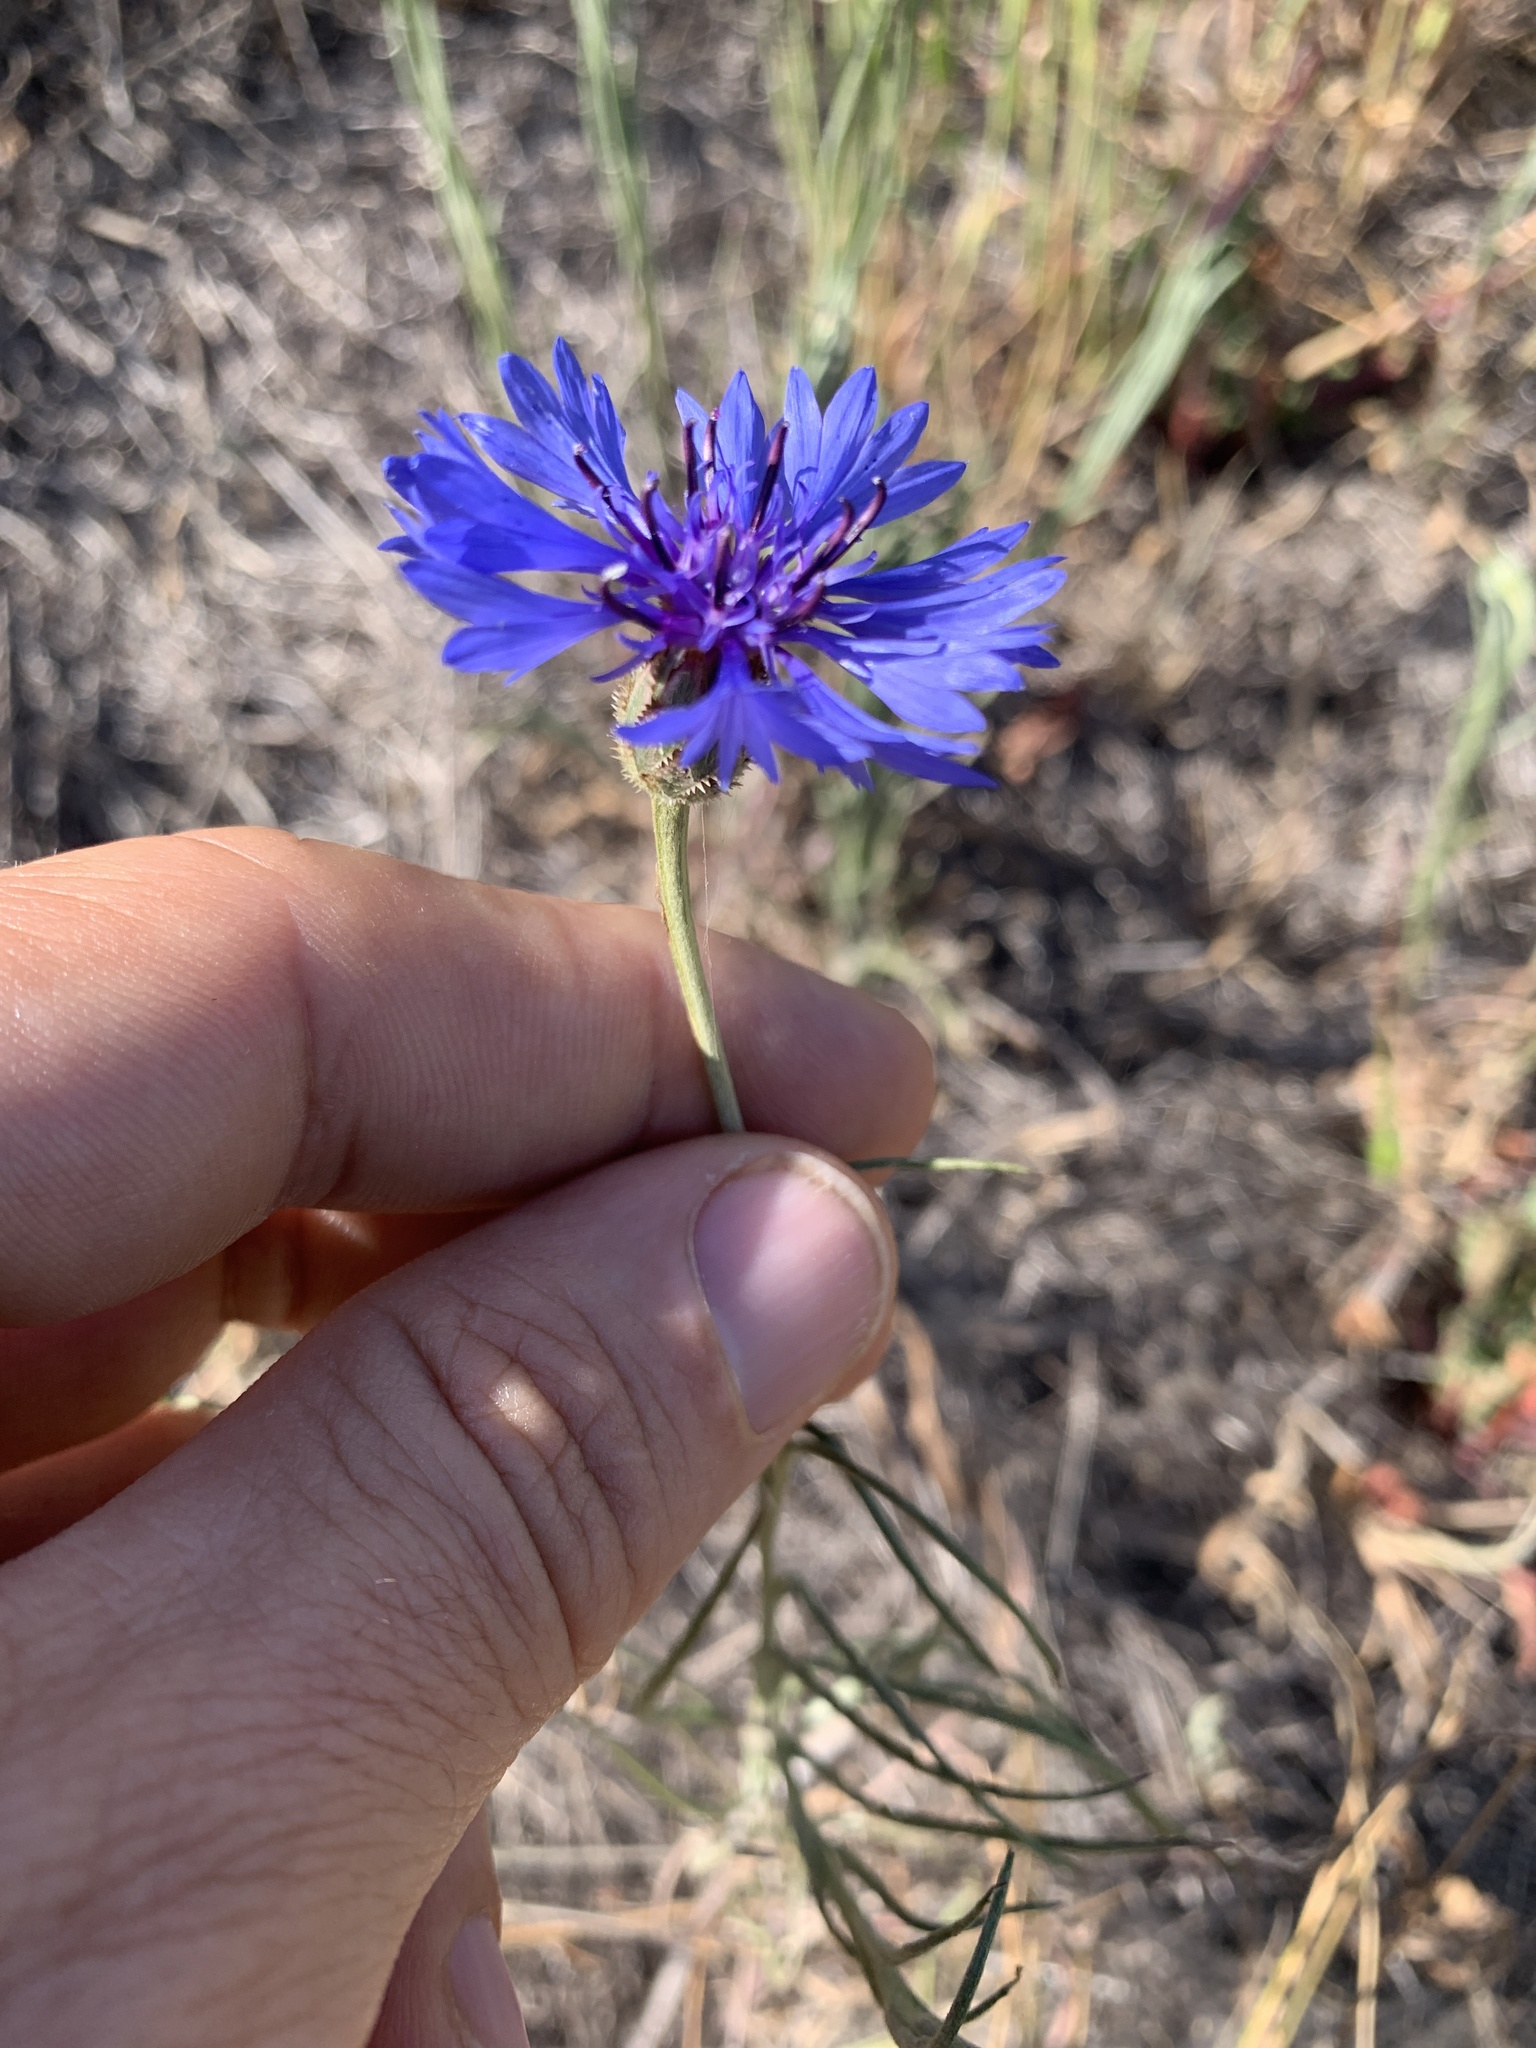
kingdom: Plantae
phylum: Tracheophyta
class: Magnoliopsida
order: Asterales
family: Asteraceae
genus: Centaurea
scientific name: Centaurea cyanus
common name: Cornflower
